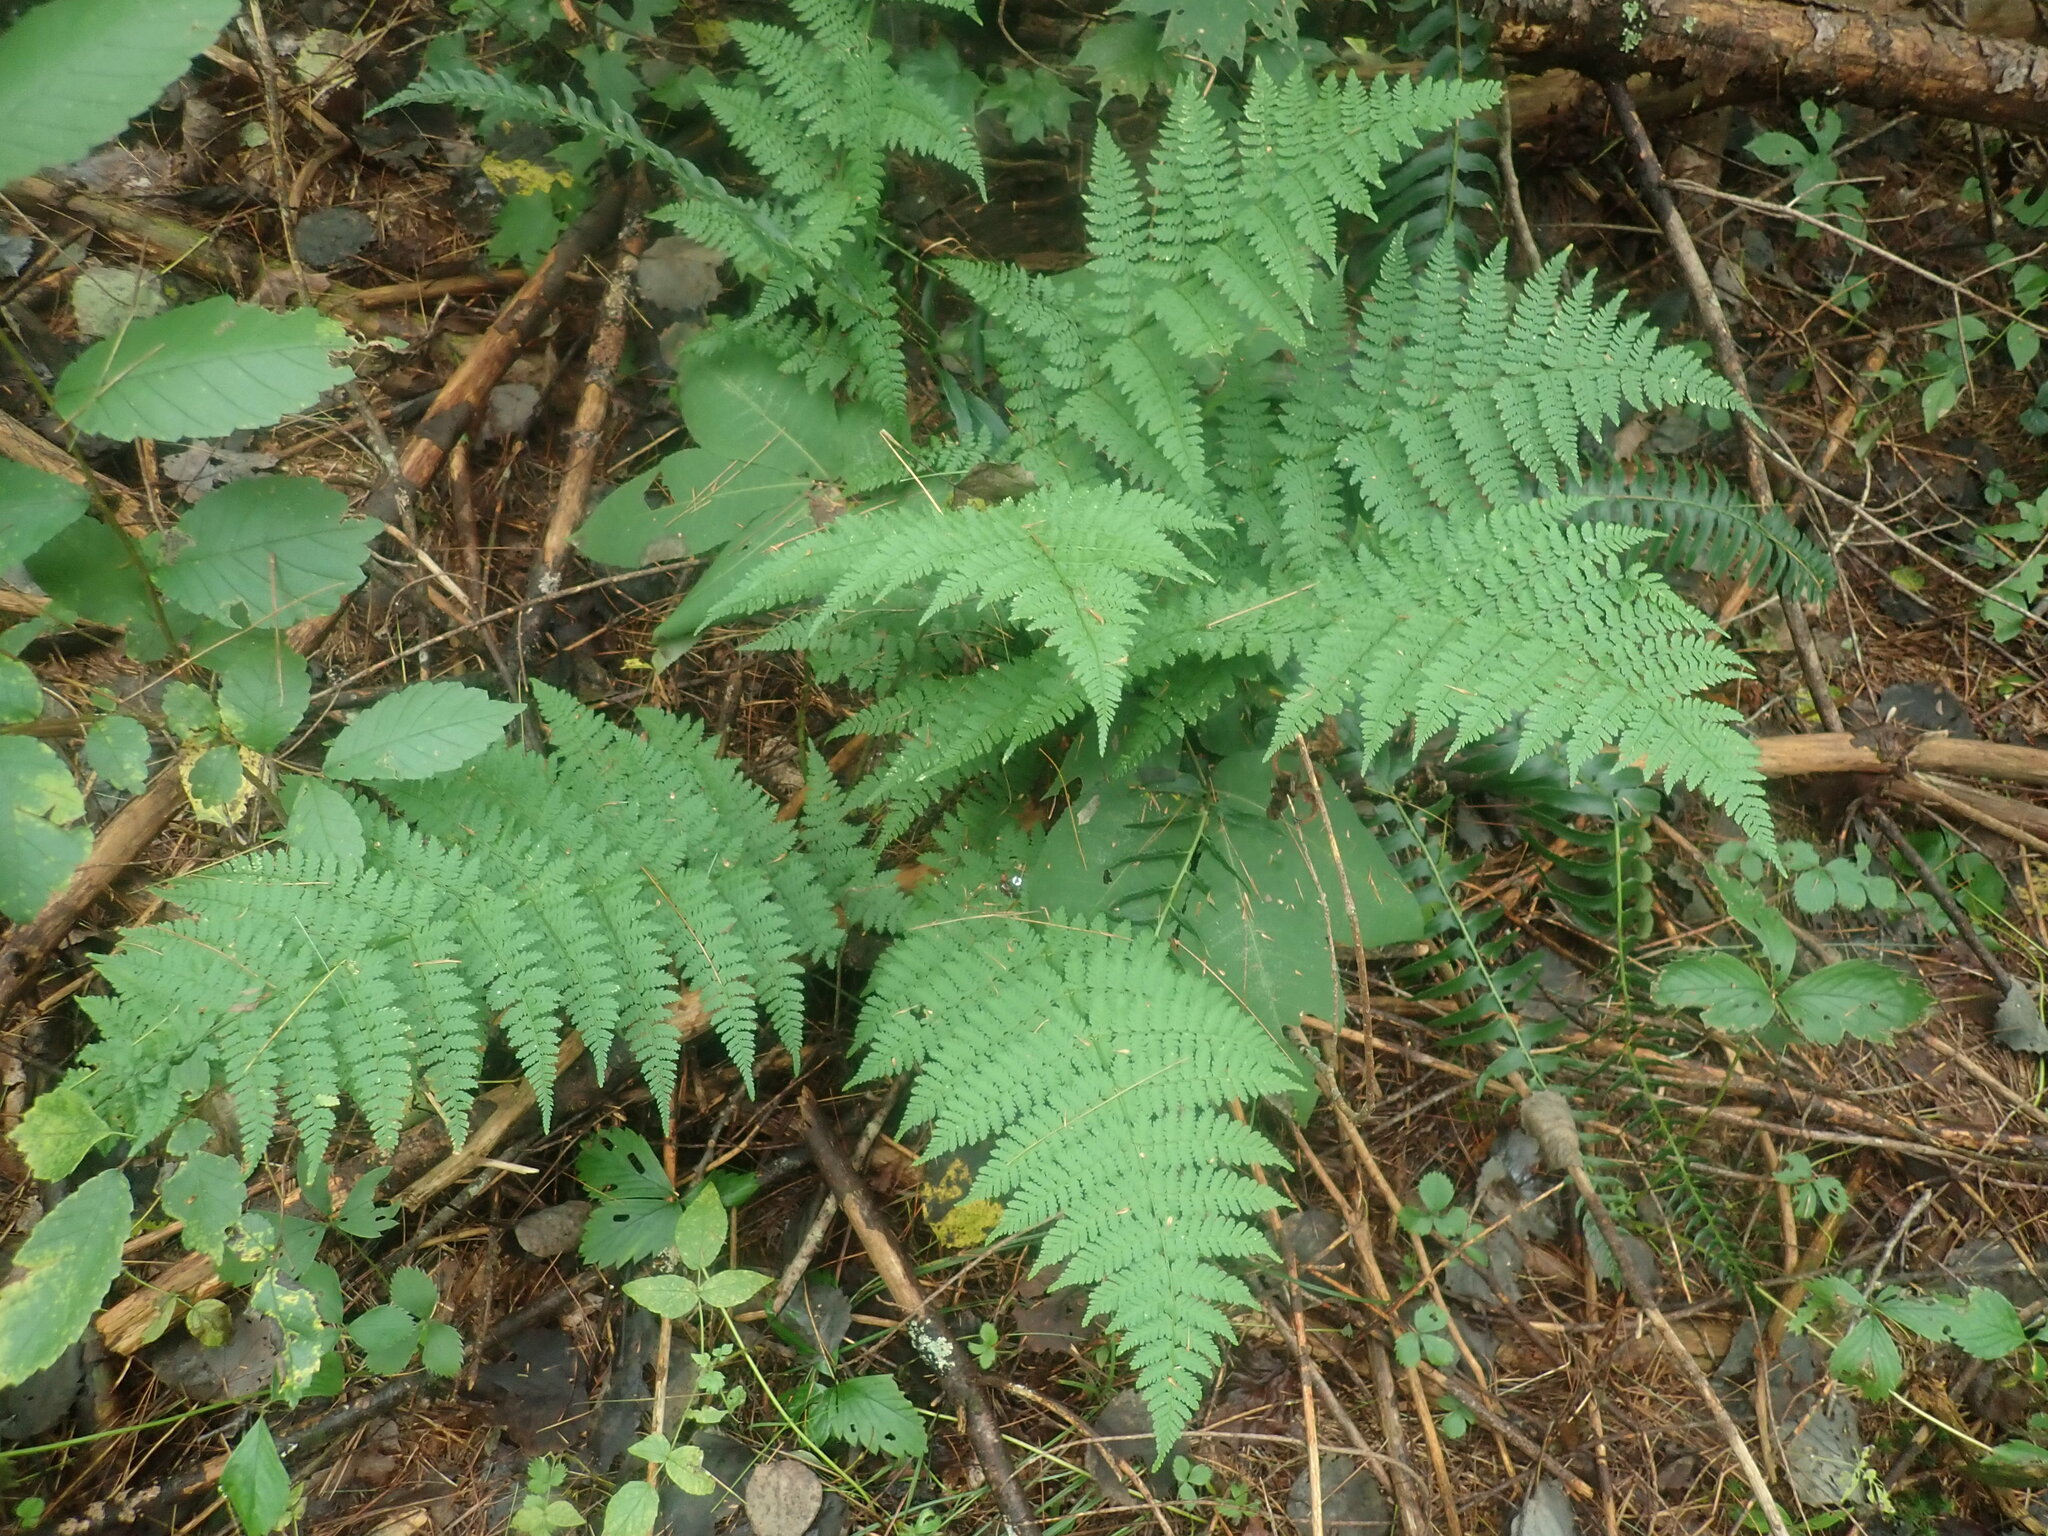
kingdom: Plantae
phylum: Tracheophyta
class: Polypodiopsida
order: Polypodiales
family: Dryopteridaceae
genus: Dryopteris
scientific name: Dryopteris intermedia
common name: Evergreen wood fern
